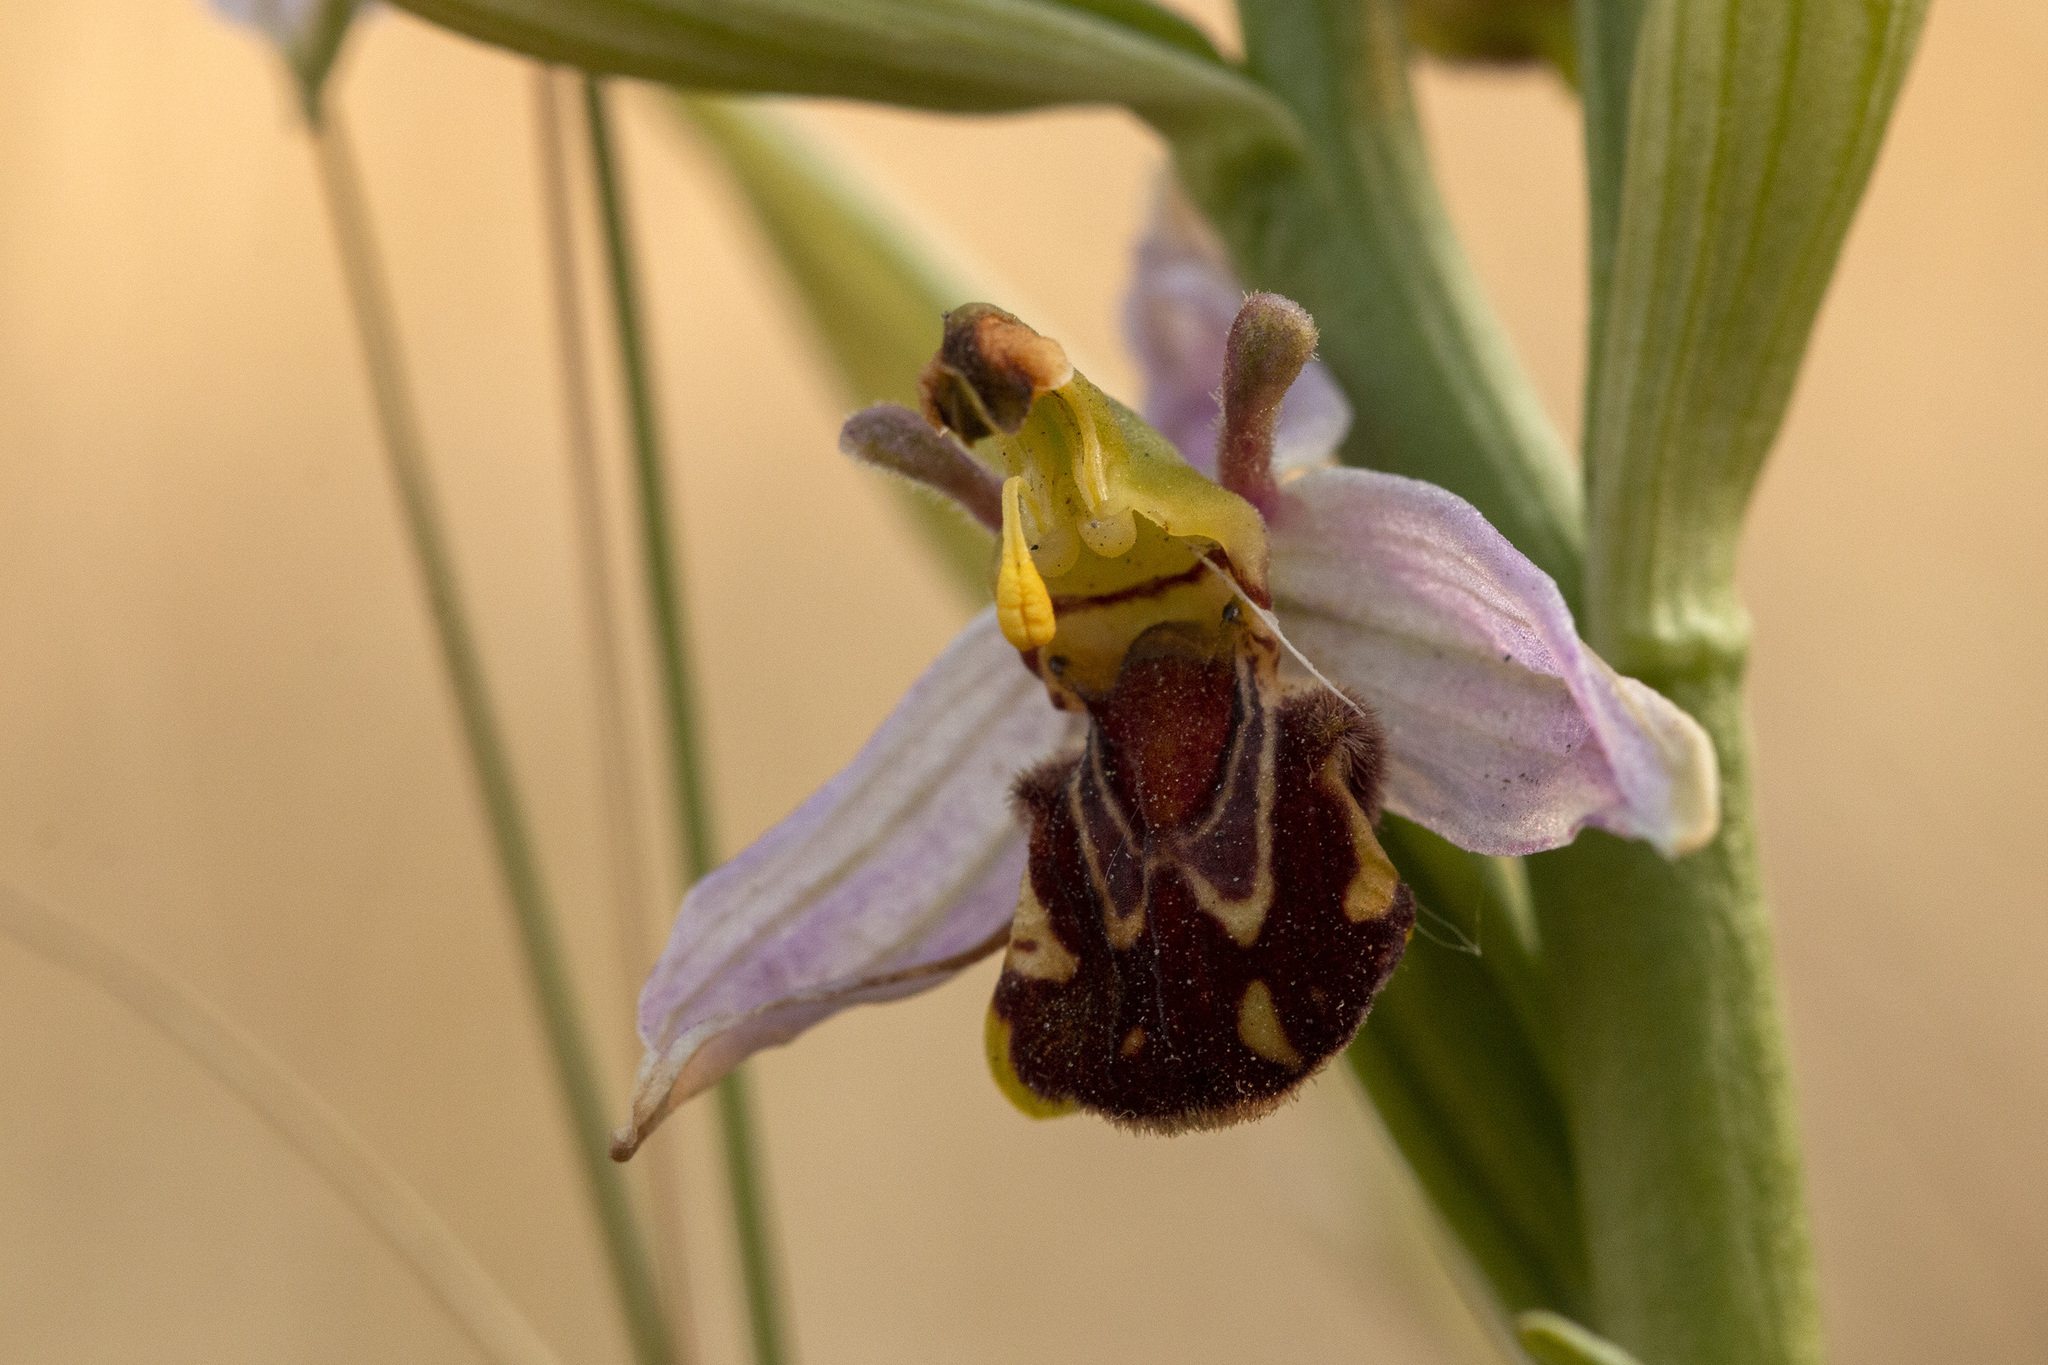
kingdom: Plantae
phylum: Tracheophyta
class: Liliopsida
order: Asparagales
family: Orchidaceae
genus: Ophrys
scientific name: Ophrys apifera
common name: Bee orchid
